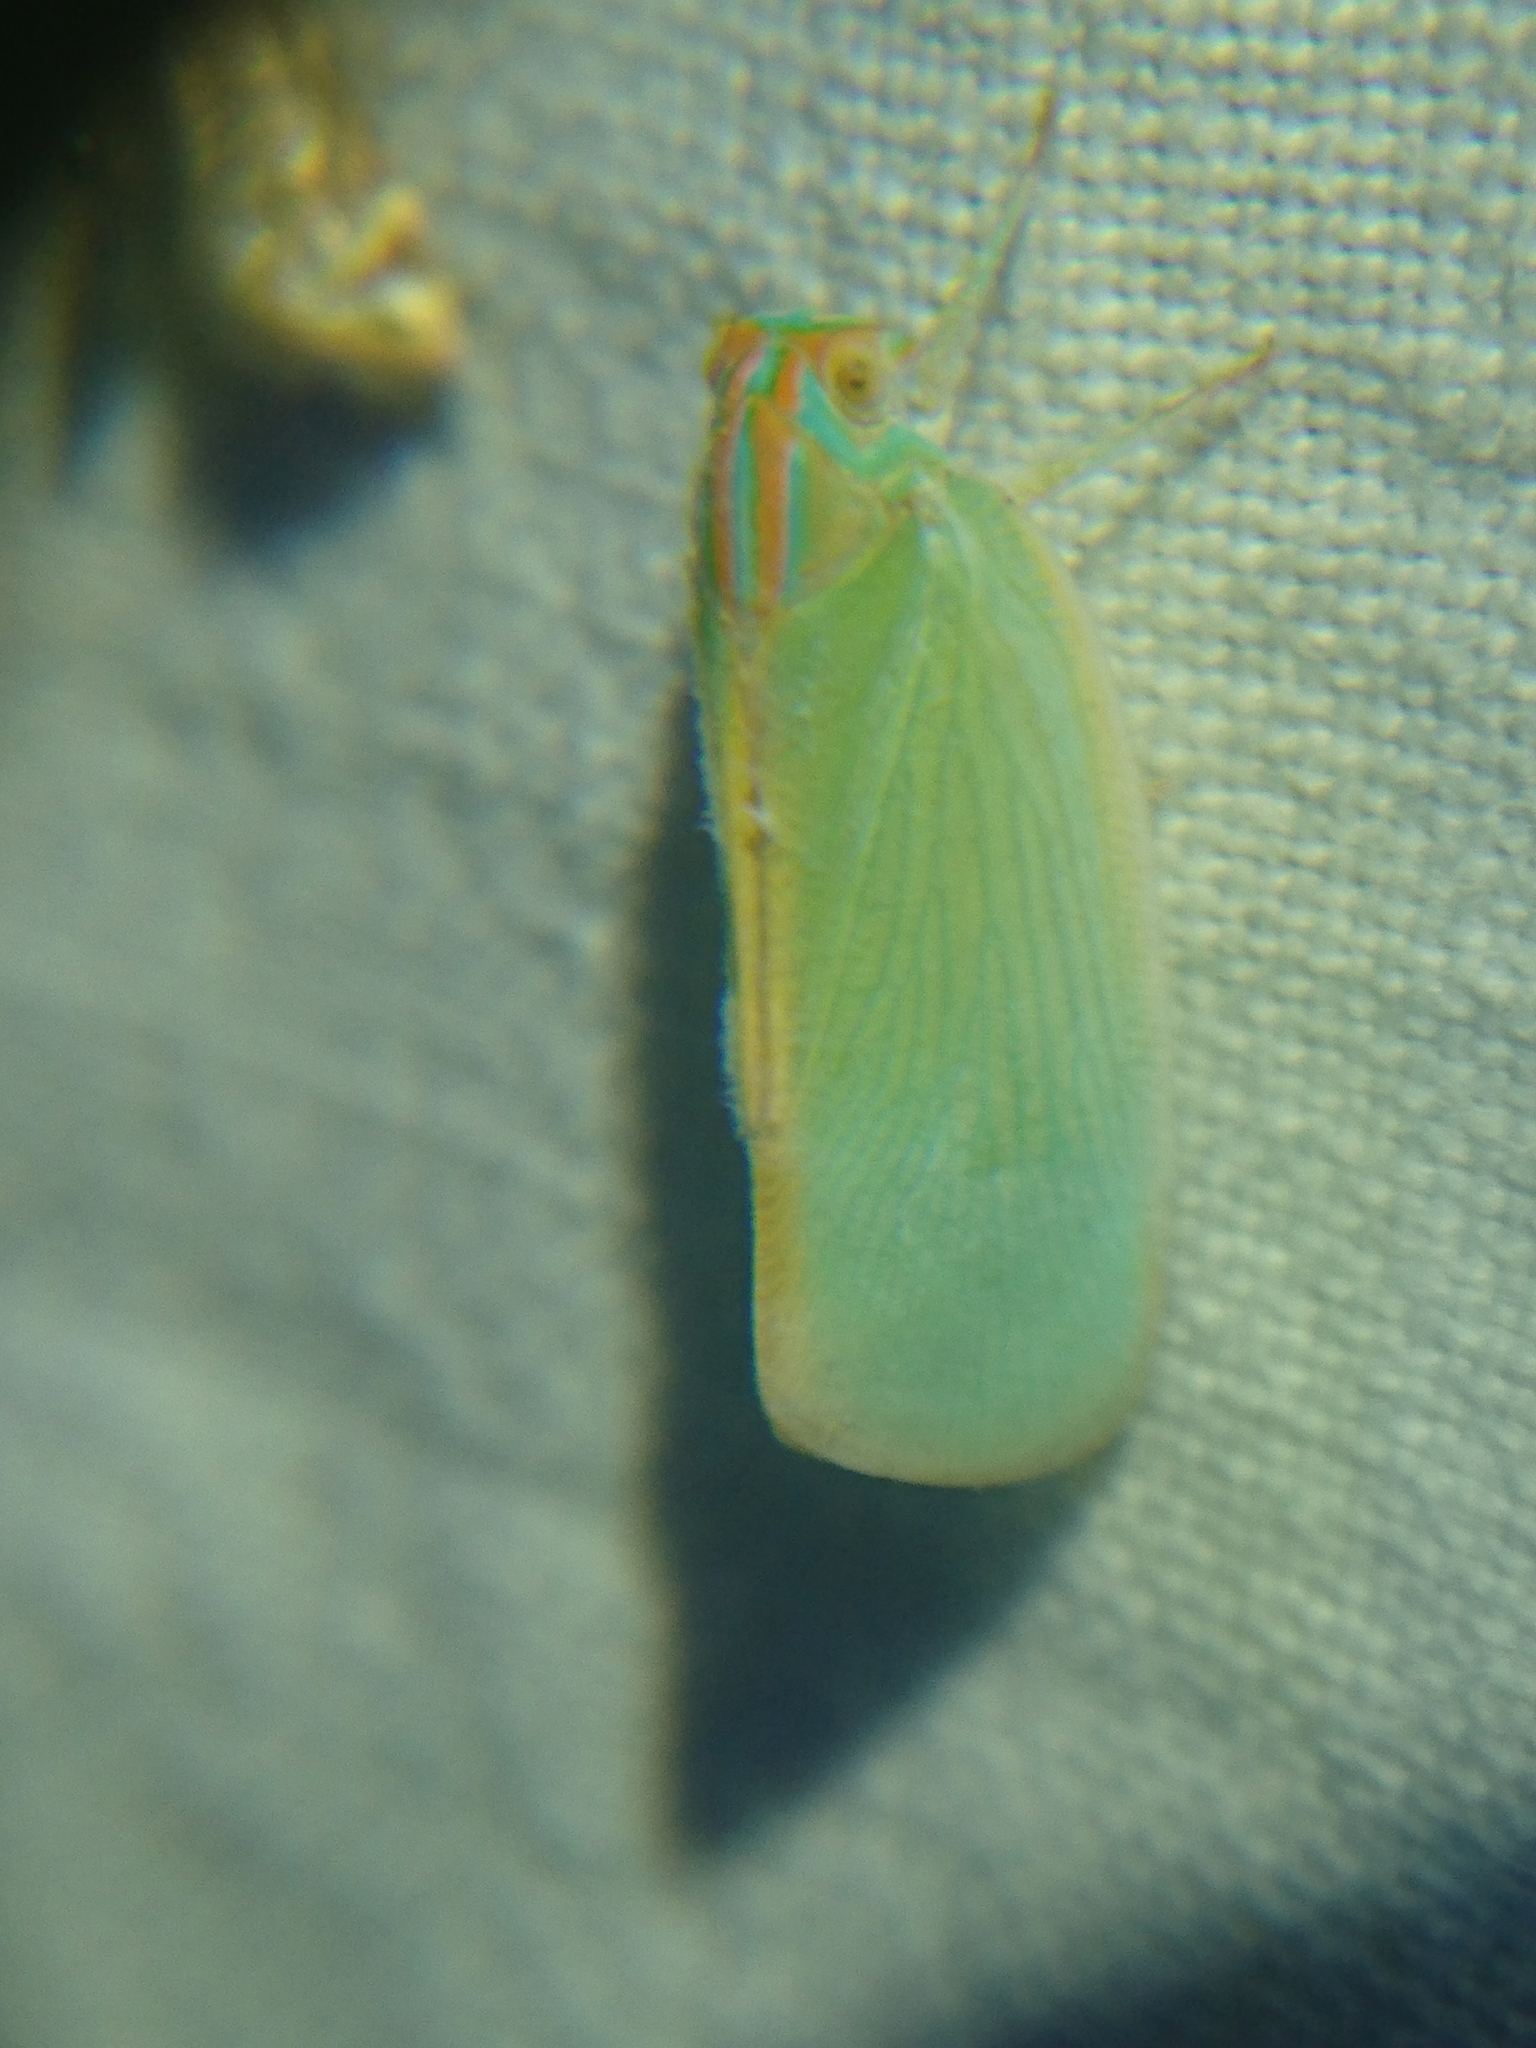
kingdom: Animalia
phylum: Arthropoda
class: Insecta
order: Hemiptera
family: Flatidae
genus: Ormenaria
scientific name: Ormenaria rufifascia
